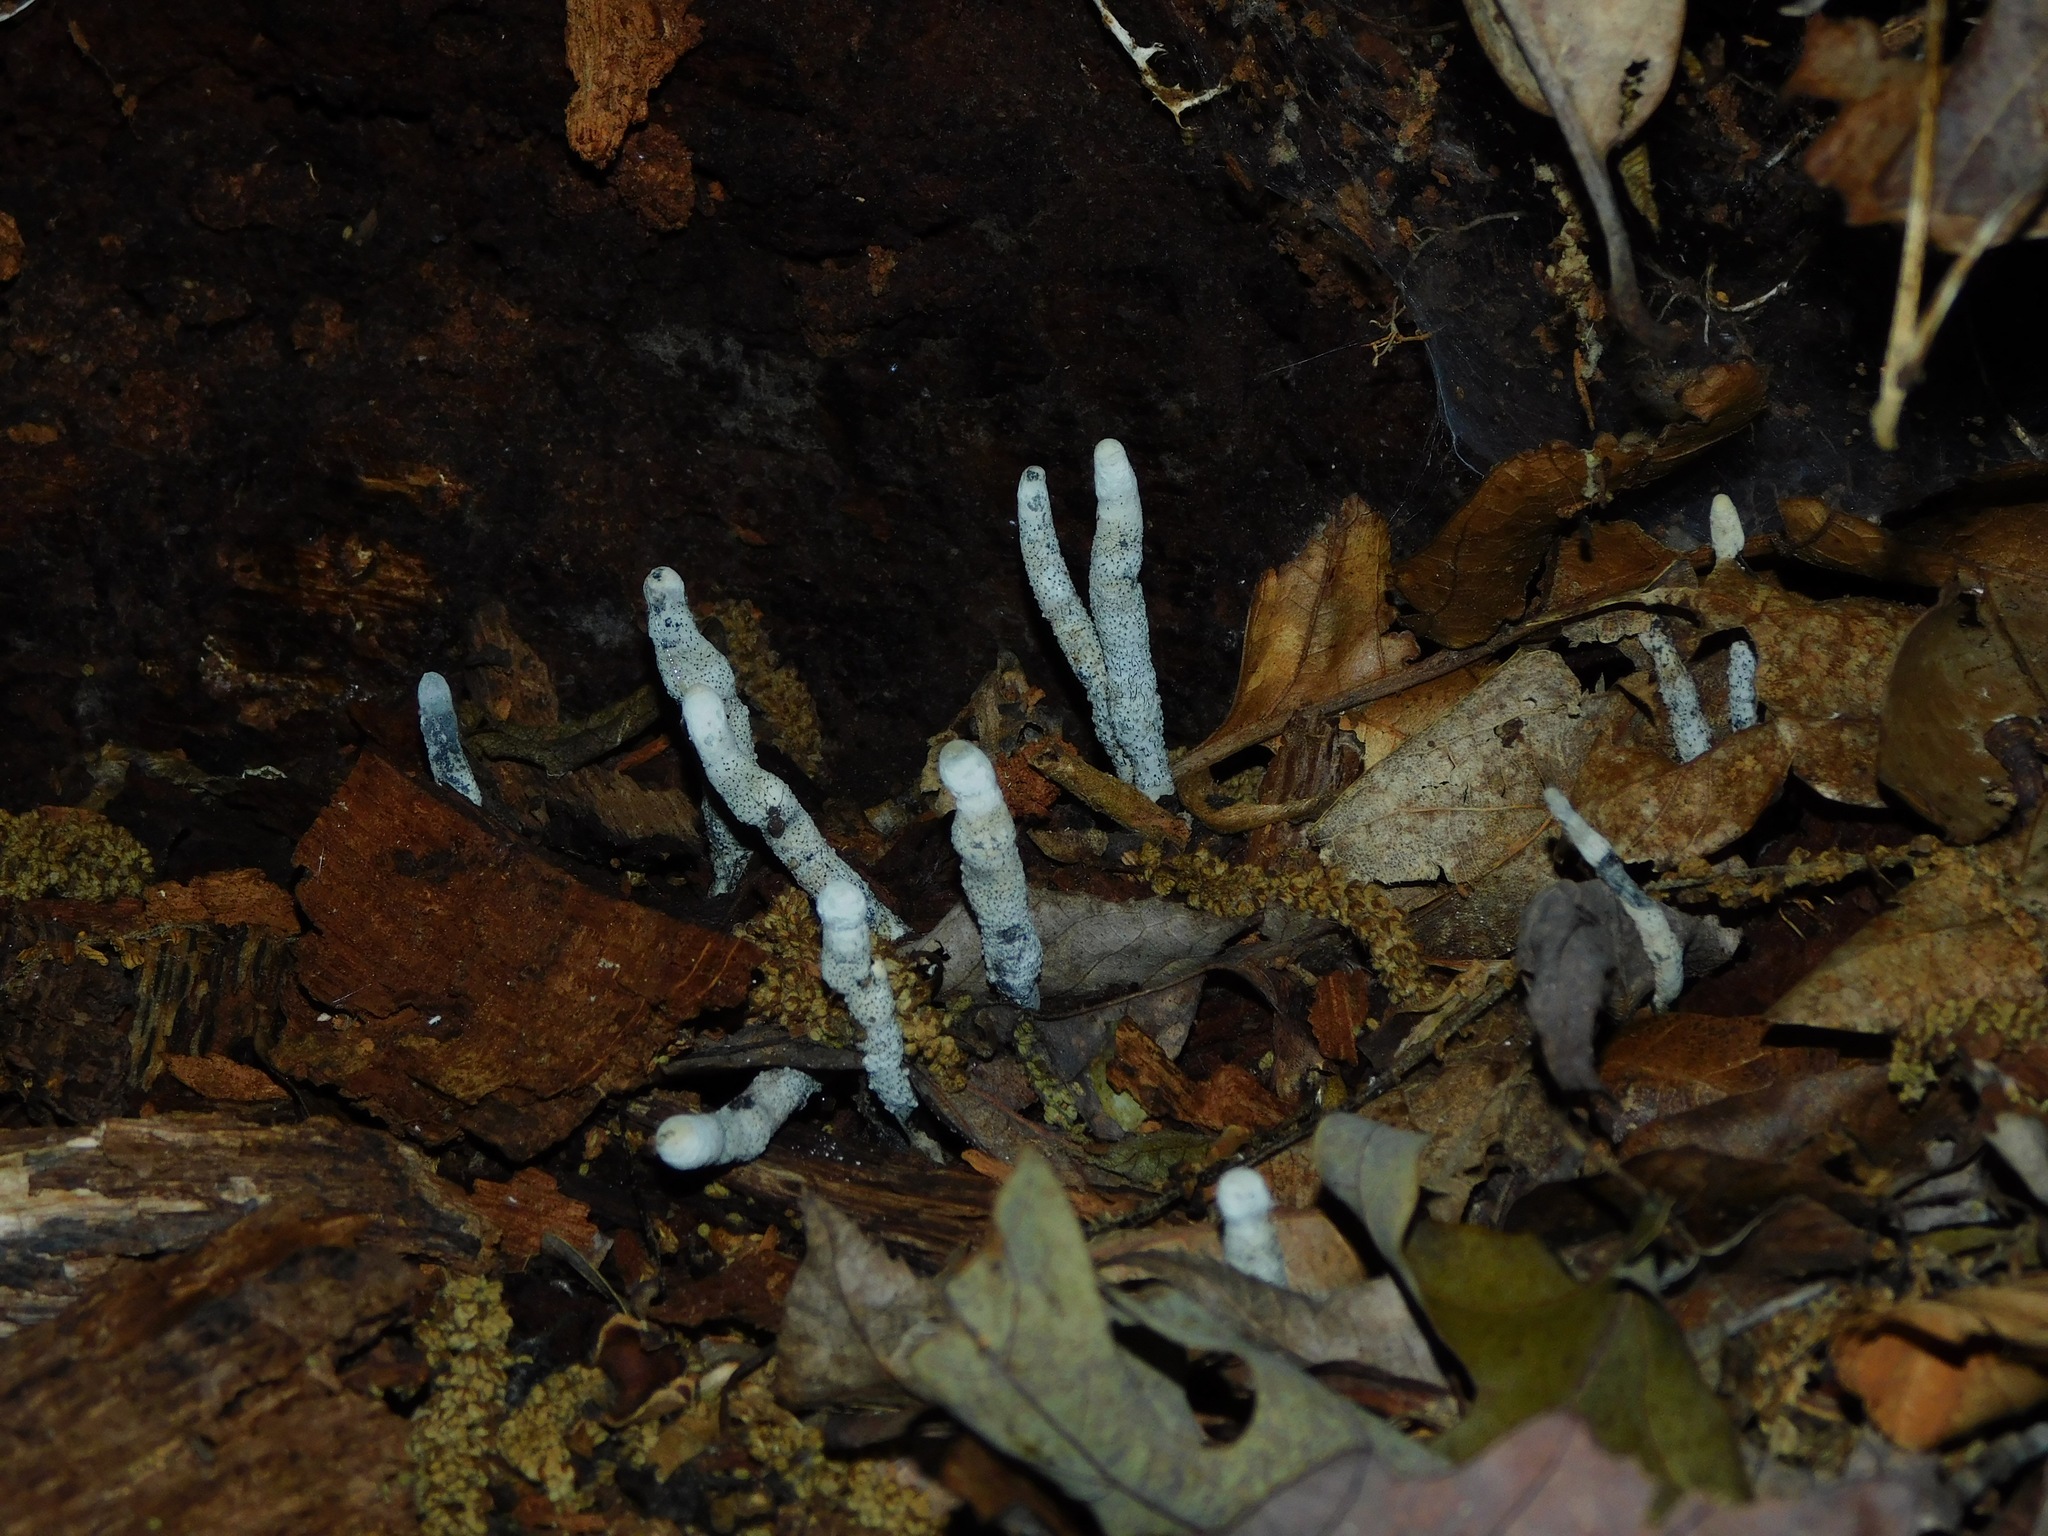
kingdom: Fungi
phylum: Ascomycota
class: Sordariomycetes
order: Xylariales
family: Xylariaceae
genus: Xylaria
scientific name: Xylaria polymorpha
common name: Dead man's fingers
